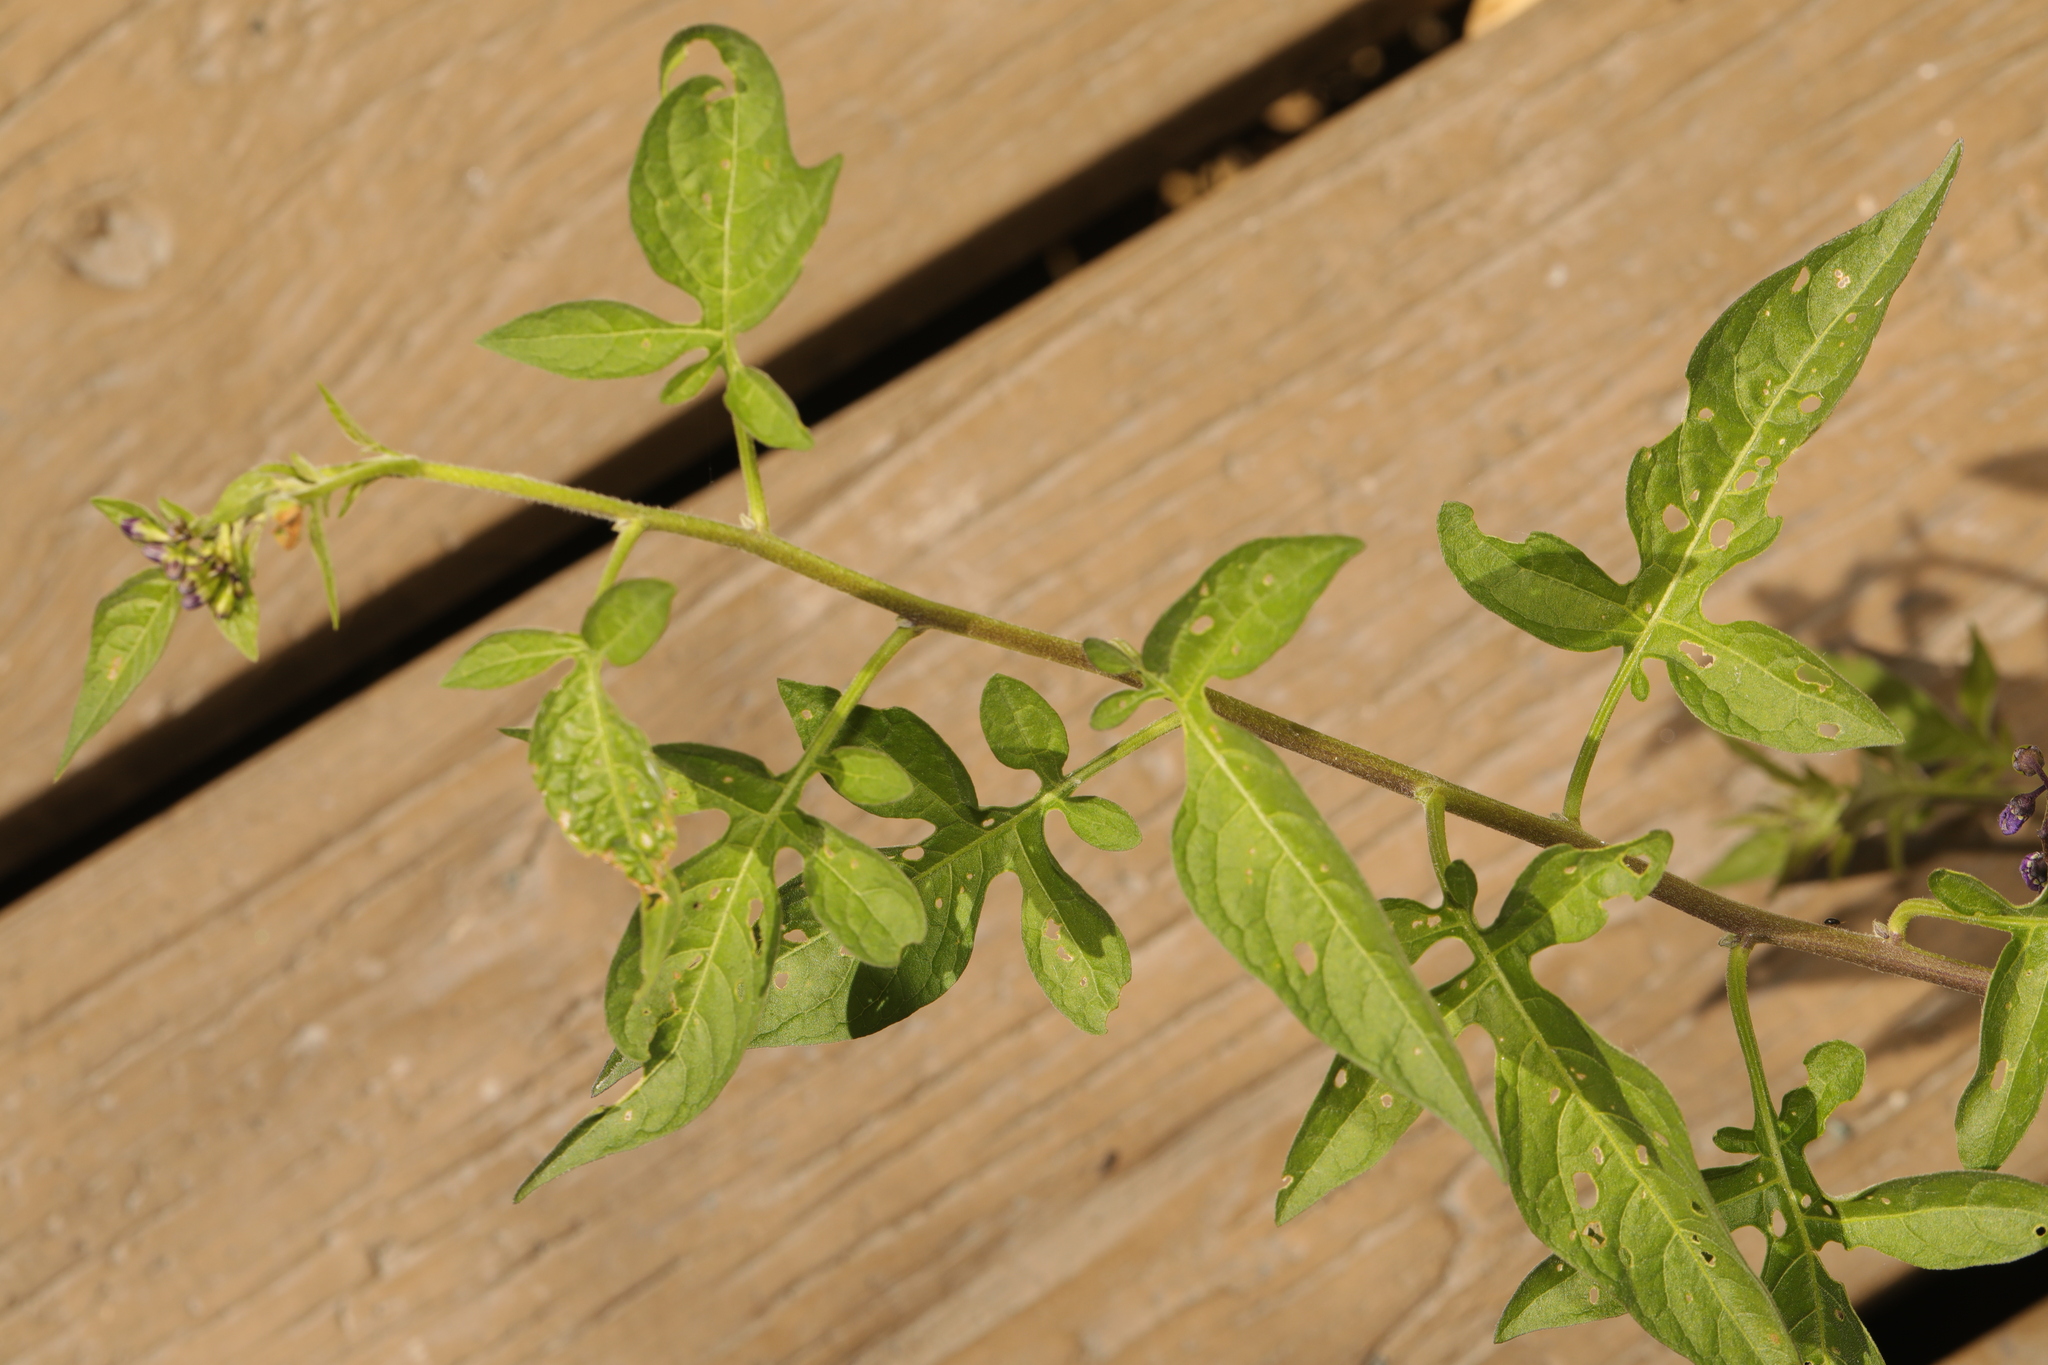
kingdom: Plantae
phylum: Tracheophyta
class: Magnoliopsida
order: Solanales
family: Solanaceae
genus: Solanum
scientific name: Solanum dulcamara
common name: Climbing nightshade
